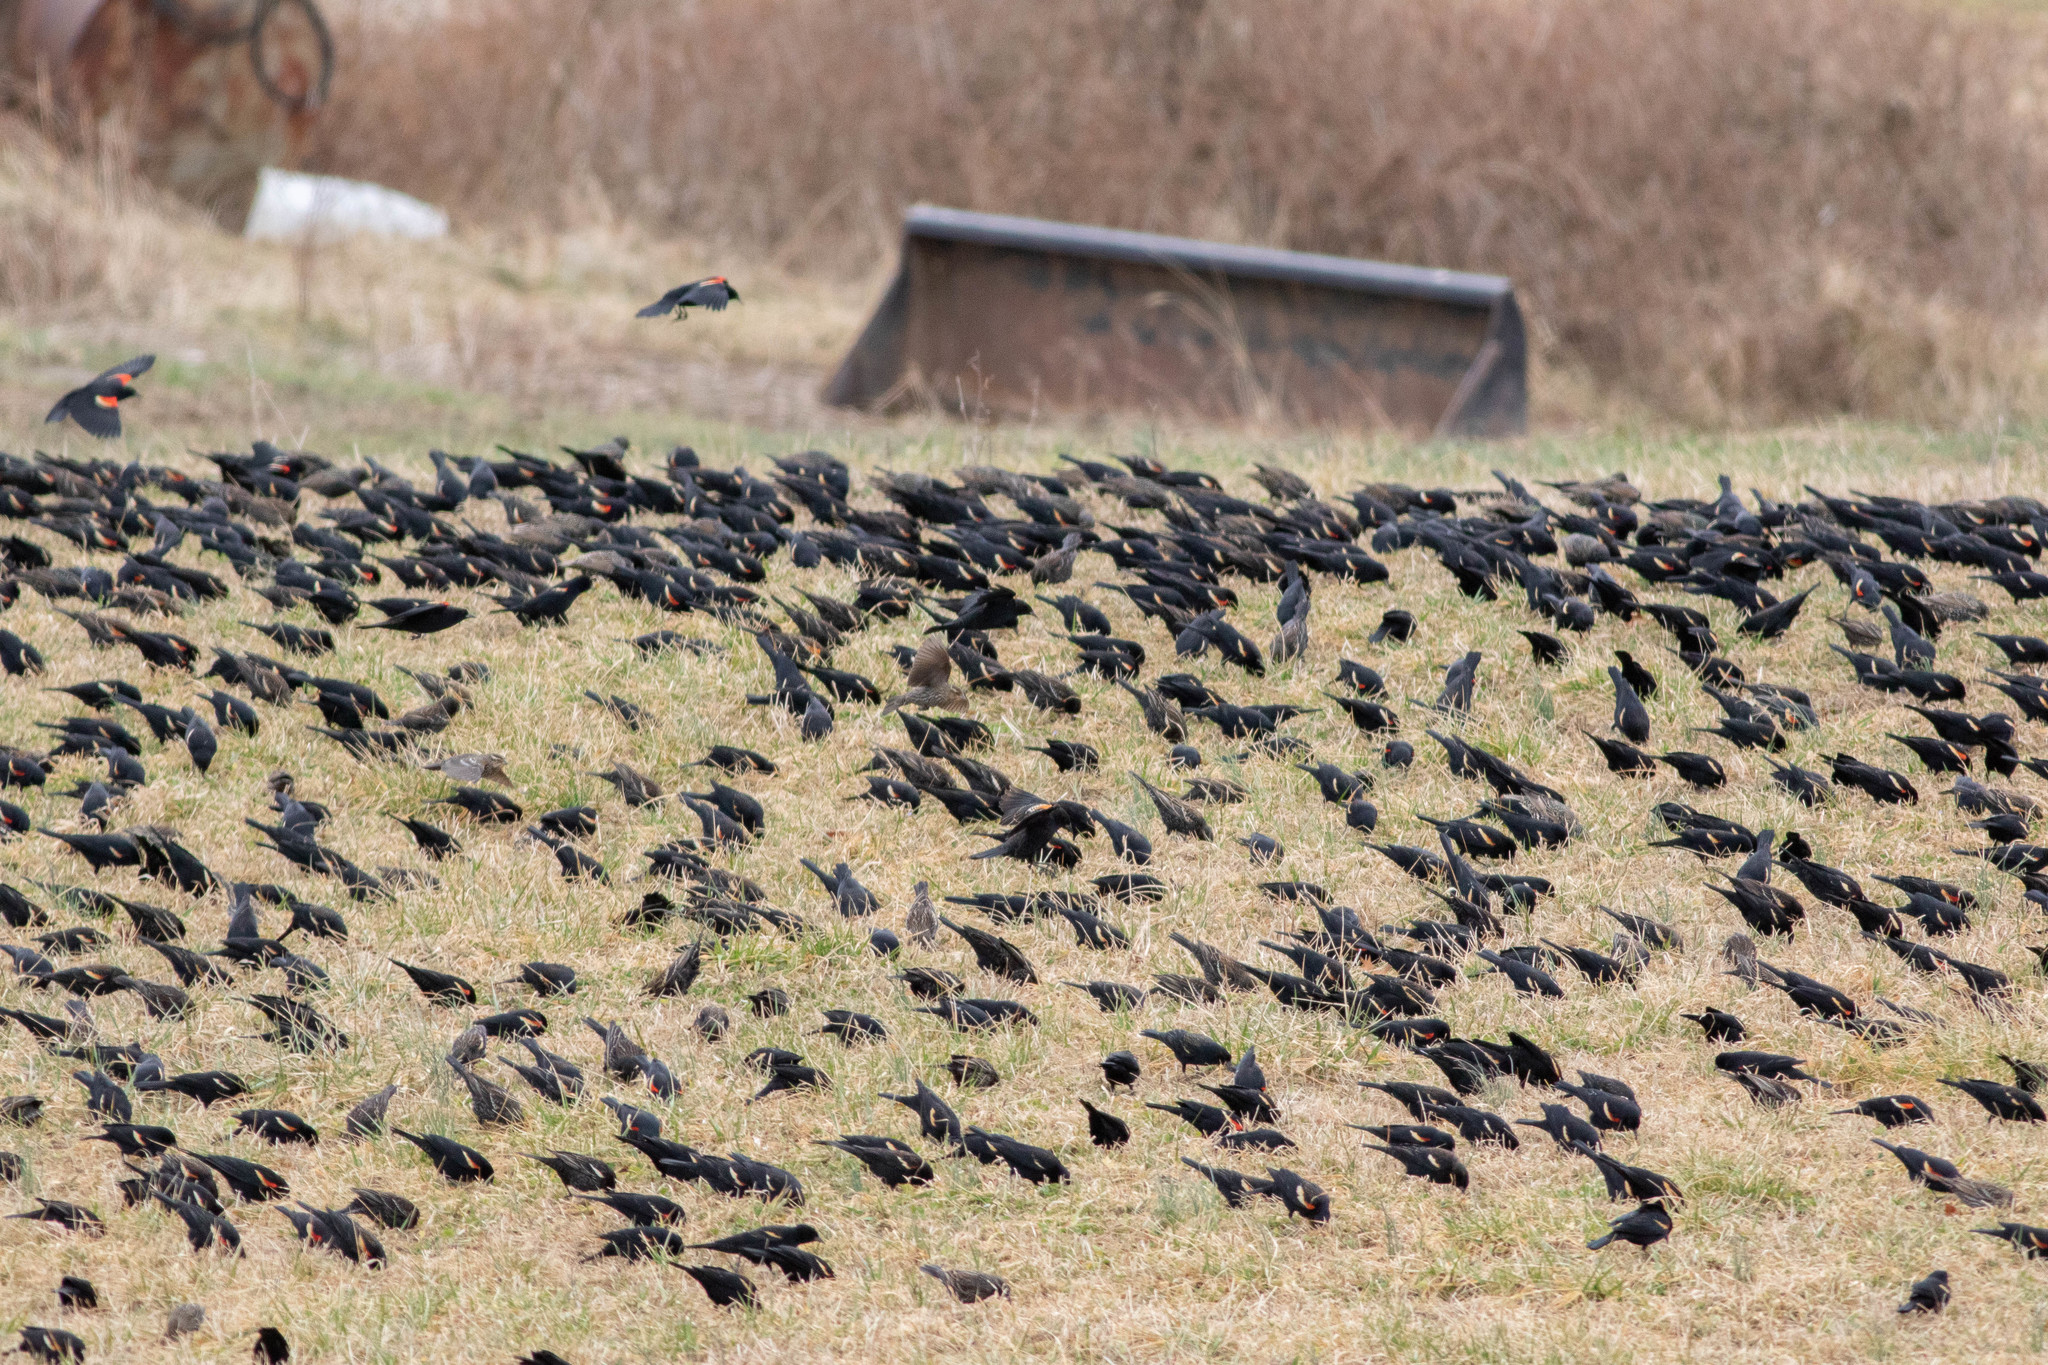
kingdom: Animalia
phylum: Chordata
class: Aves
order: Passeriformes
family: Icteridae
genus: Agelaius
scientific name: Agelaius phoeniceus
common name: Red-winged blackbird
